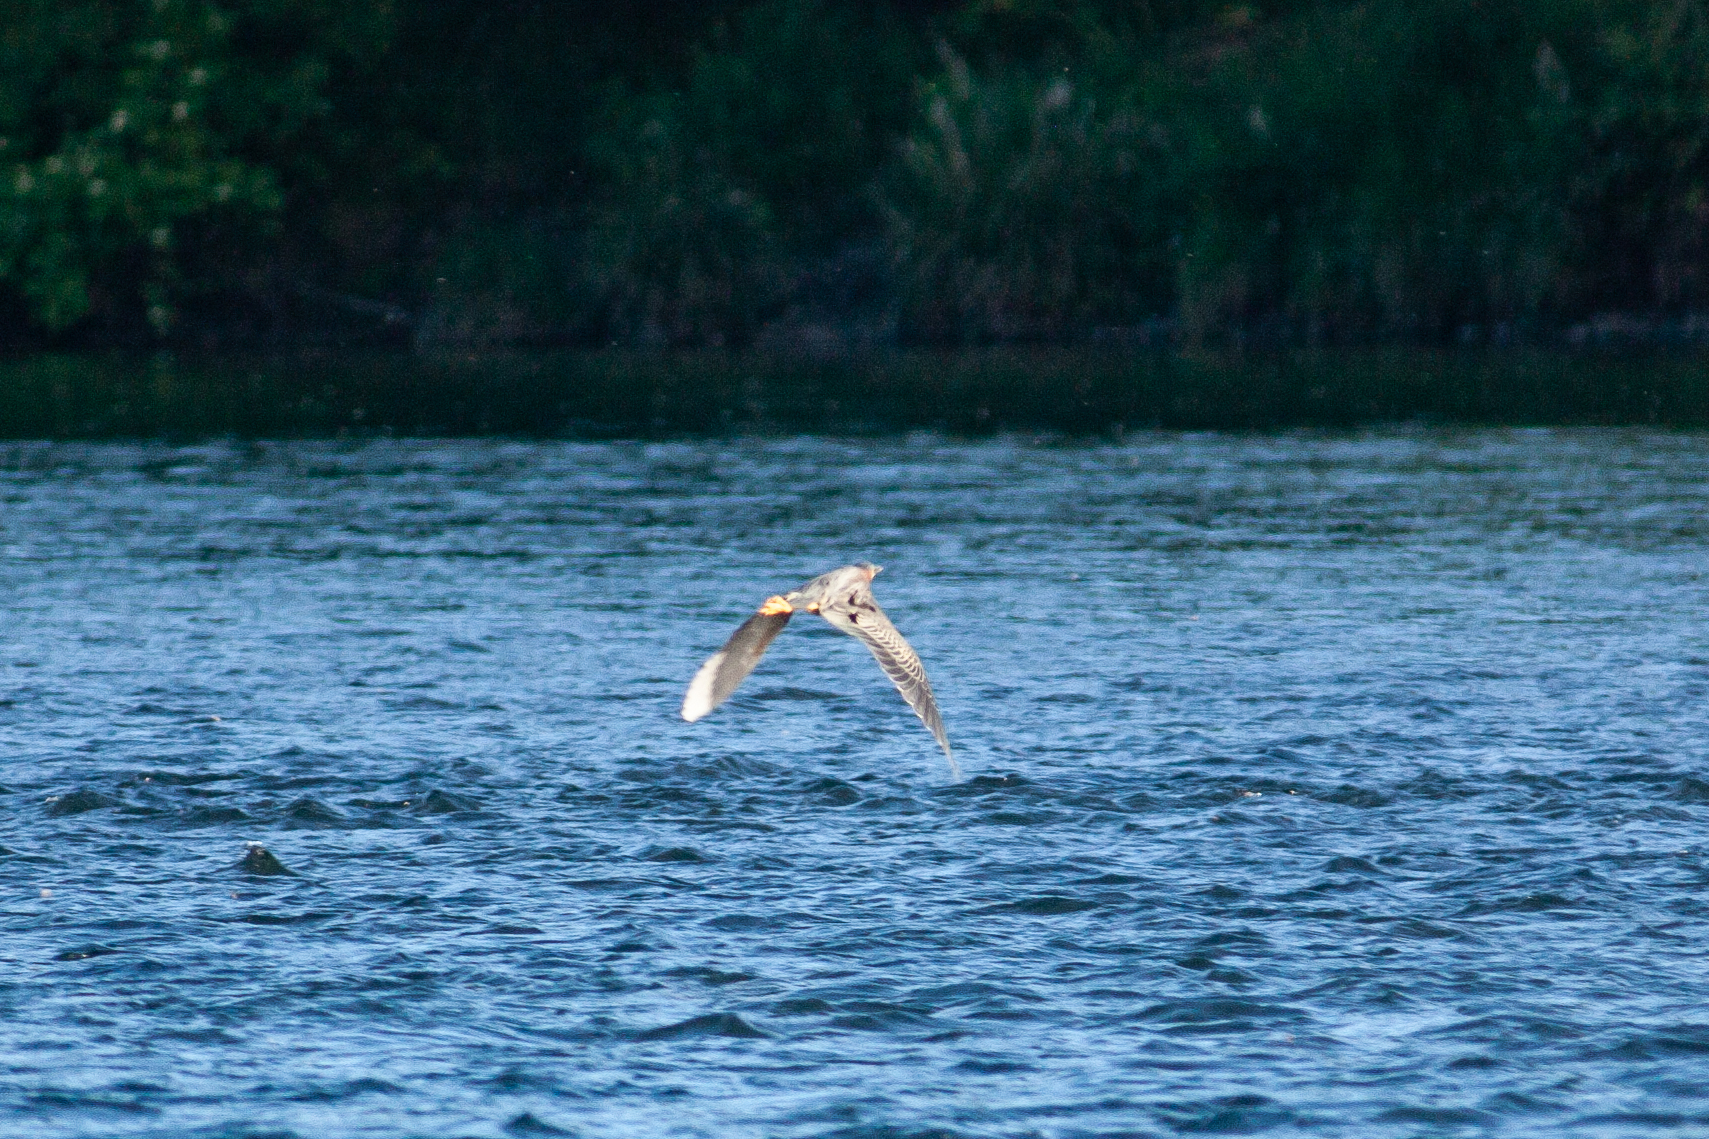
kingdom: Animalia
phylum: Chordata
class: Aves
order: Pelecaniformes
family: Ardeidae
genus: Butorides
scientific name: Butorides virescens
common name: Green heron
